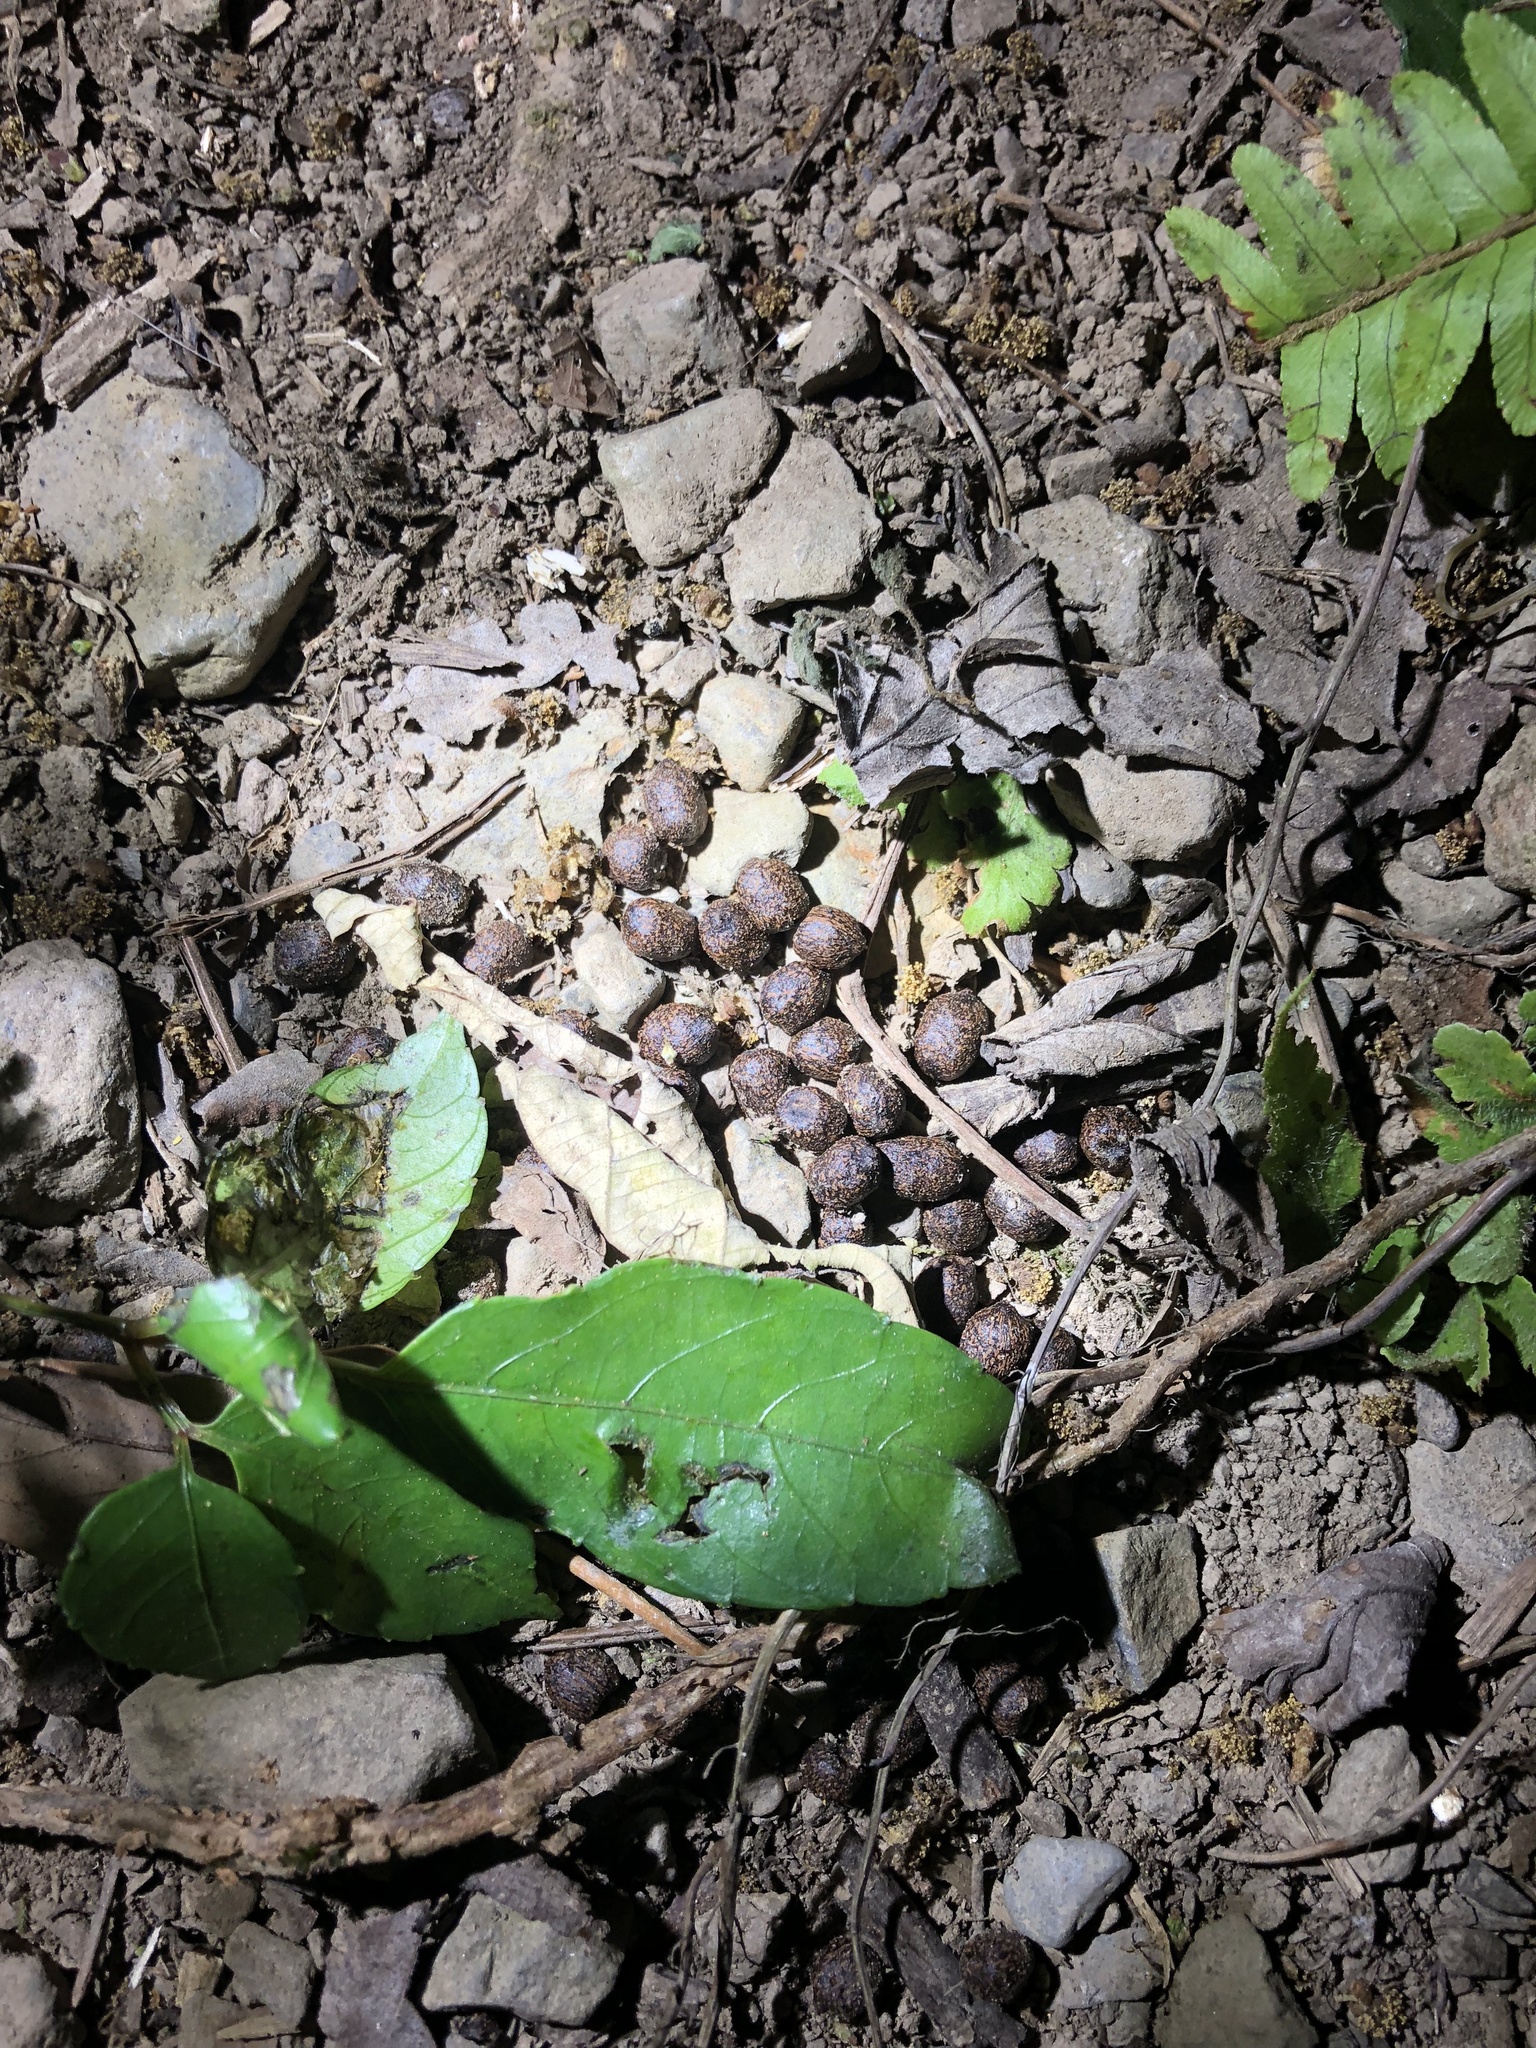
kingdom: Animalia
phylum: Chordata
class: Mammalia
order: Artiodactyla
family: Cervidae
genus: Muntiacus
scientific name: Muntiacus reevesi
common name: Reeves' muntjac
